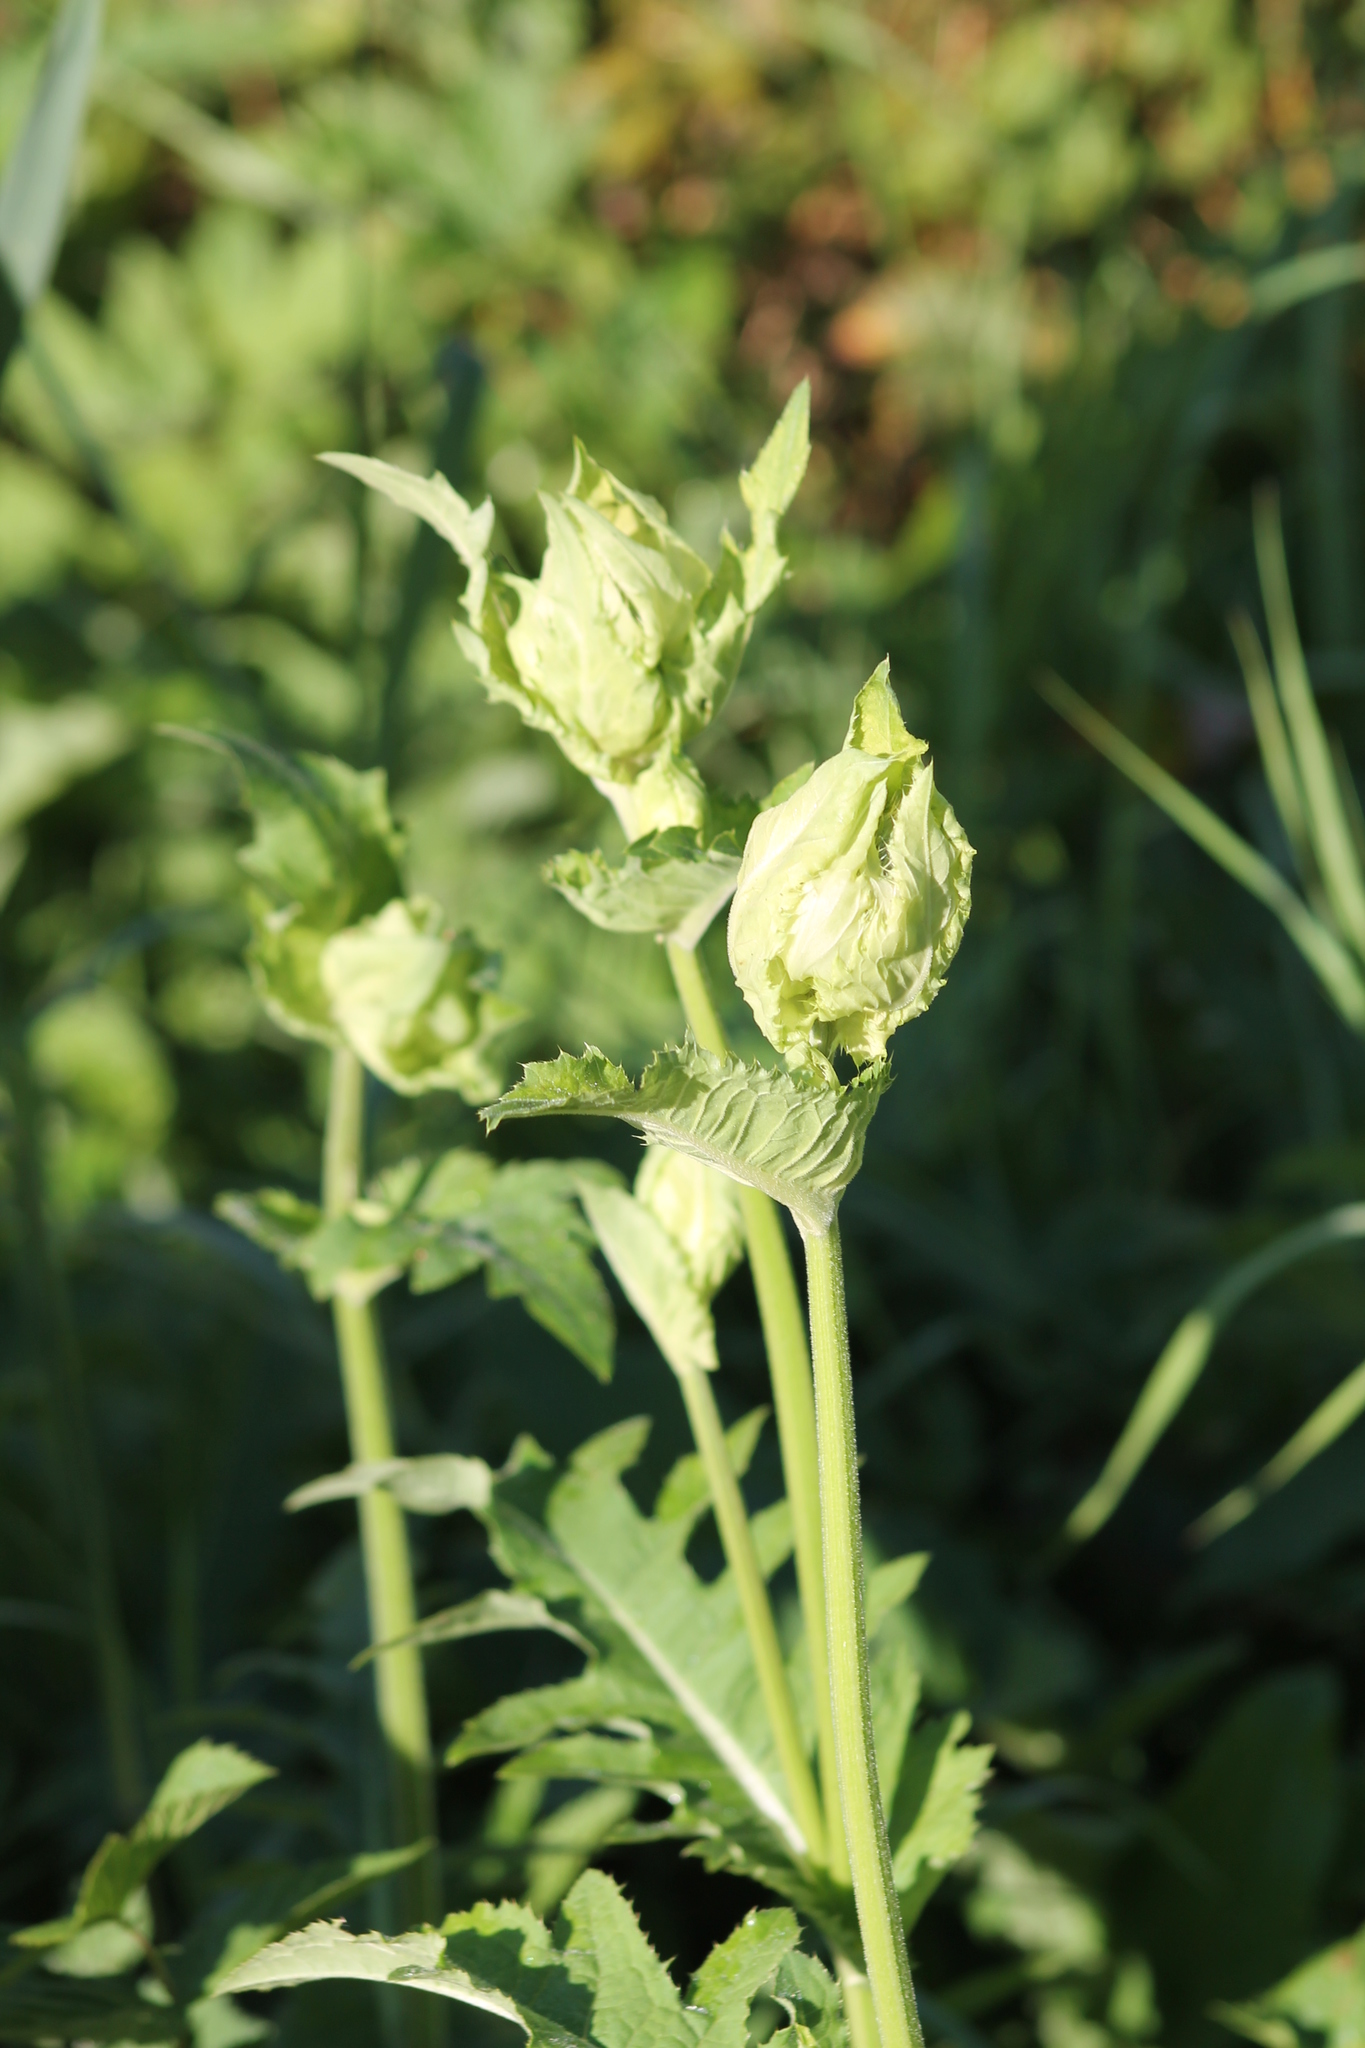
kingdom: Plantae
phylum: Tracheophyta
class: Magnoliopsida
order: Asterales
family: Asteraceae
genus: Cirsium
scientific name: Cirsium oleraceum
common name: Cabbage thistle
